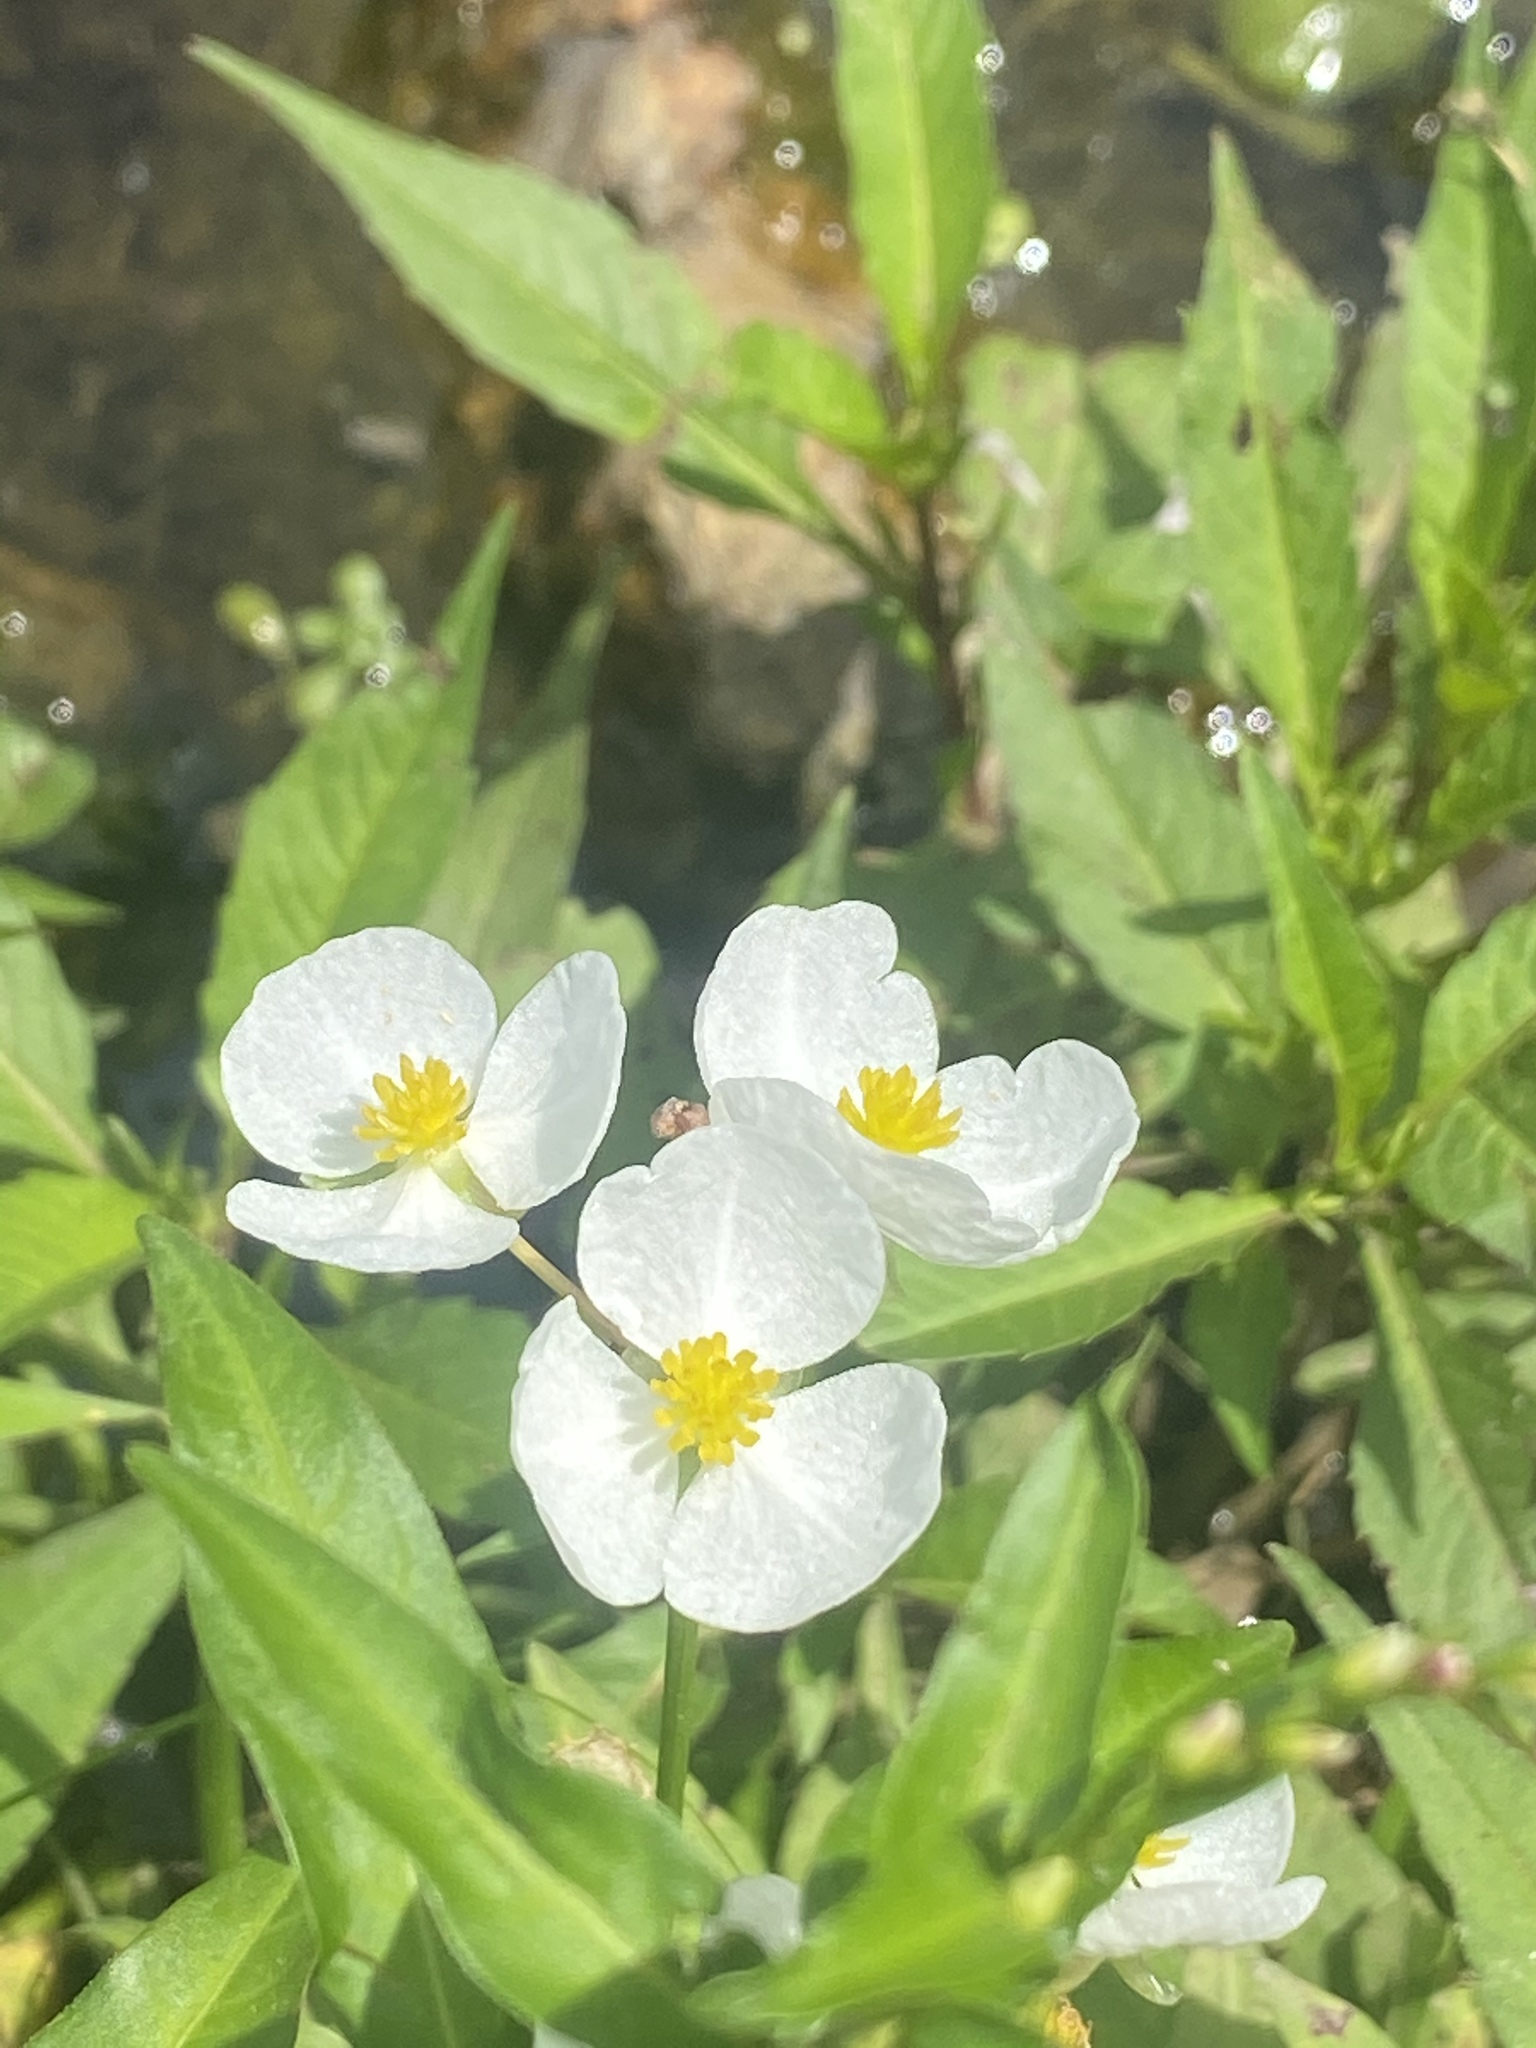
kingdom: Plantae
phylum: Tracheophyta
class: Liliopsida
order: Alismatales
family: Alismataceae
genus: Sagittaria
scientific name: Sagittaria latifolia
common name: Duck-potato
